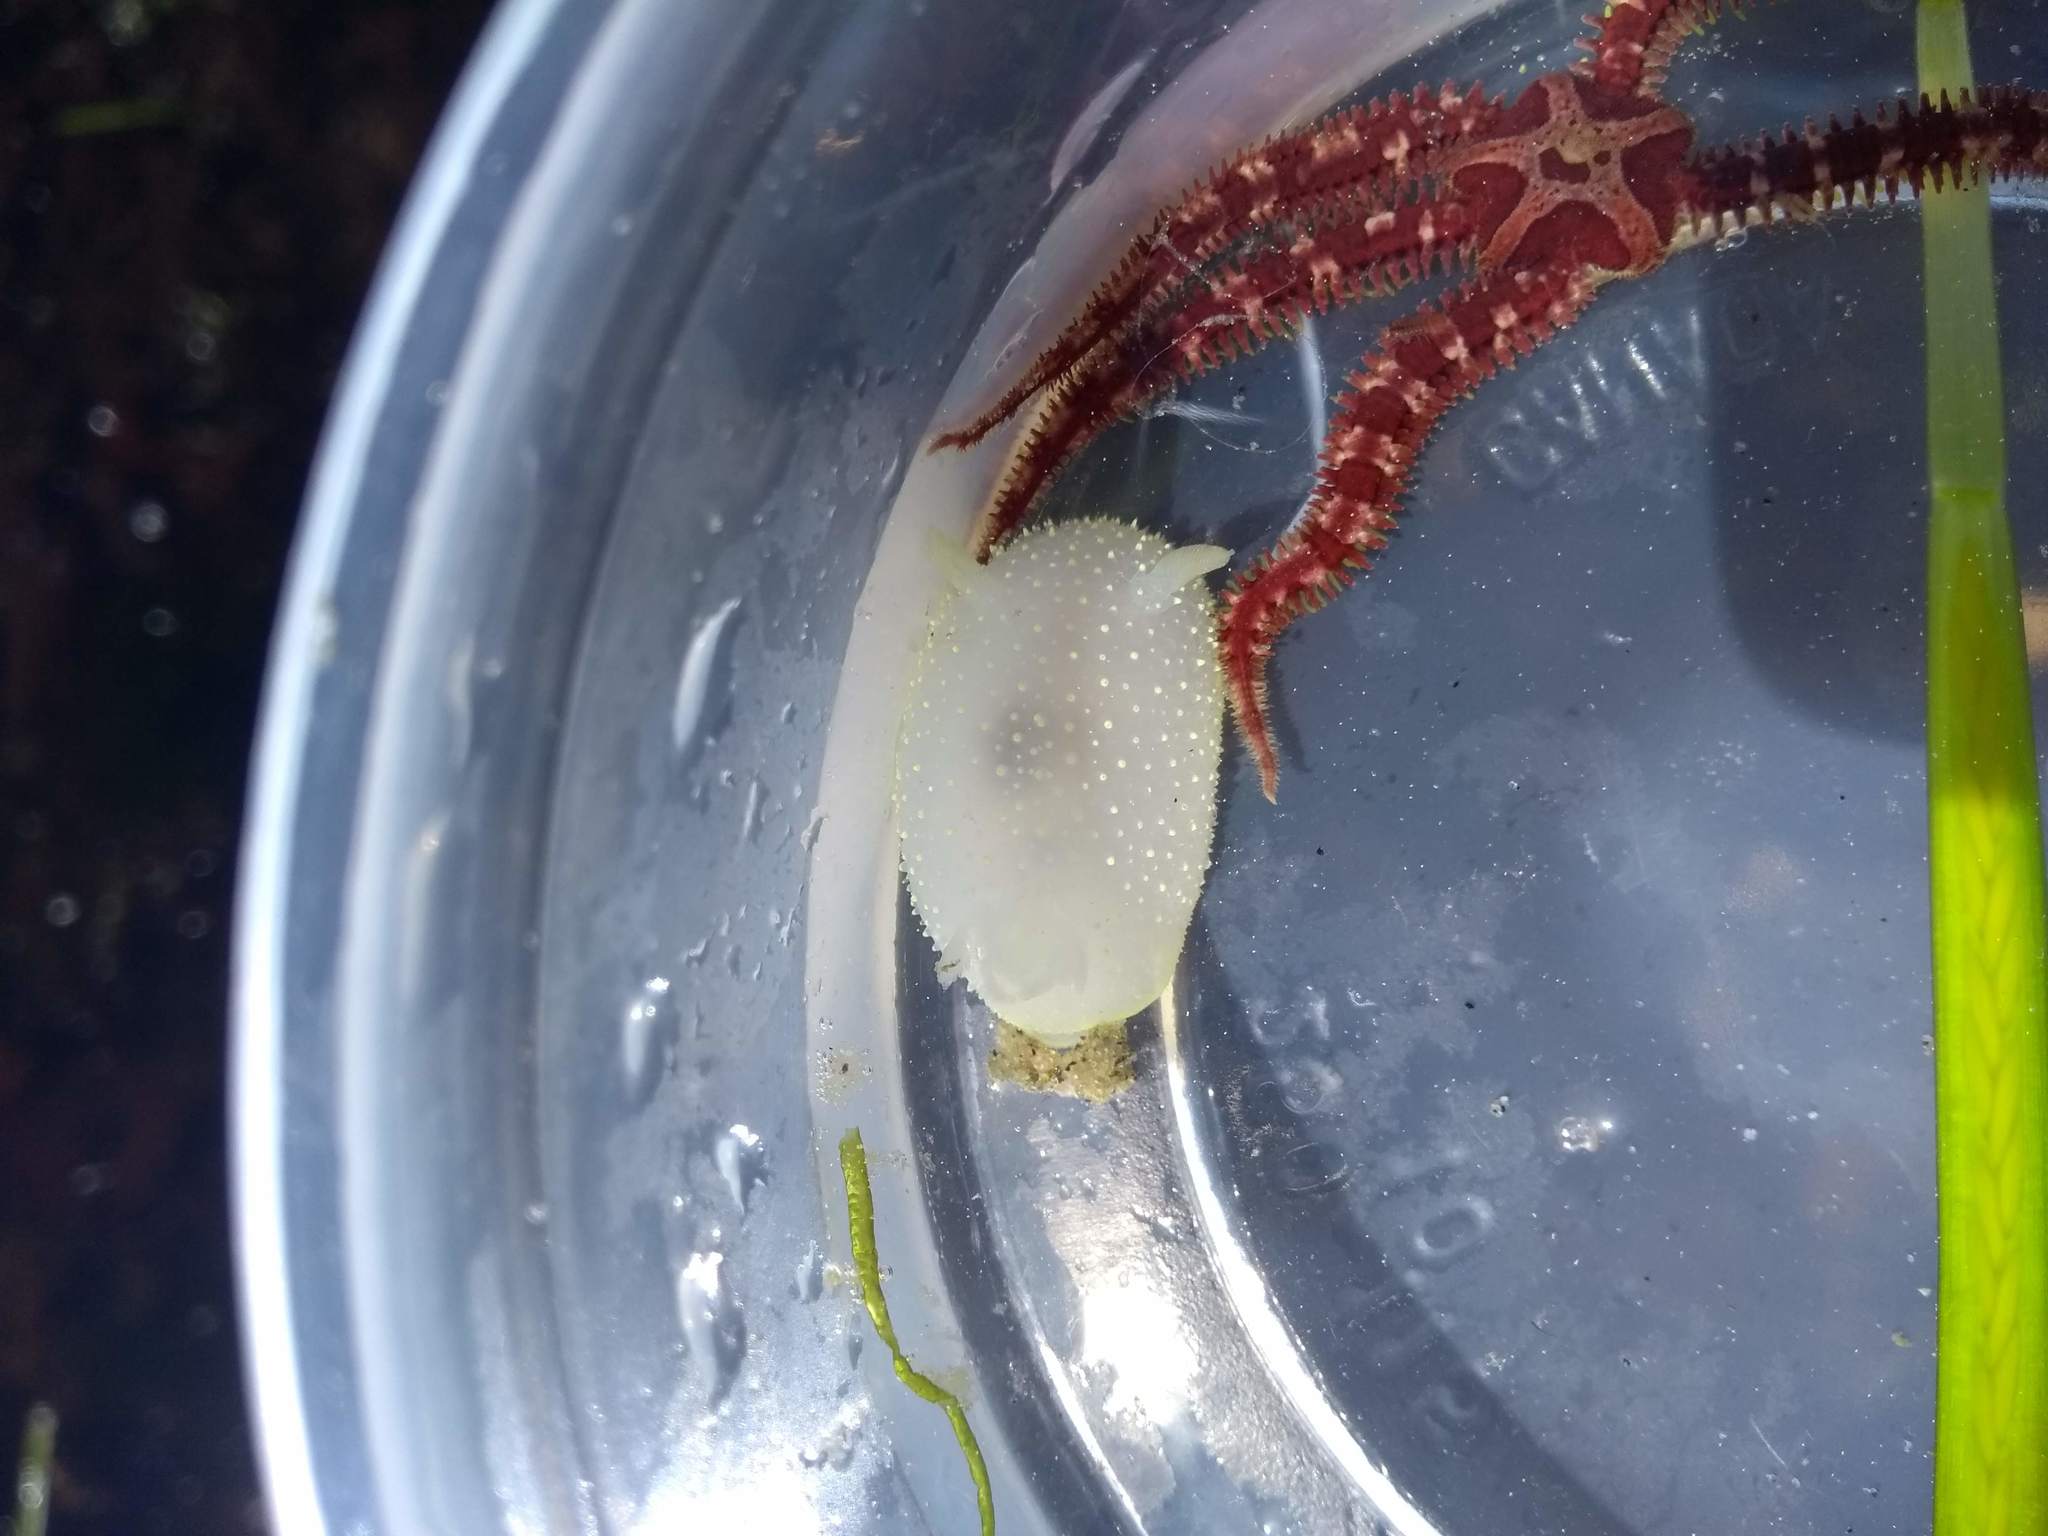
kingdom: Animalia
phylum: Mollusca
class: Gastropoda
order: Nudibranchia
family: Onchidorididae
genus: Acanthodoris
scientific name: Acanthodoris hudsoni
